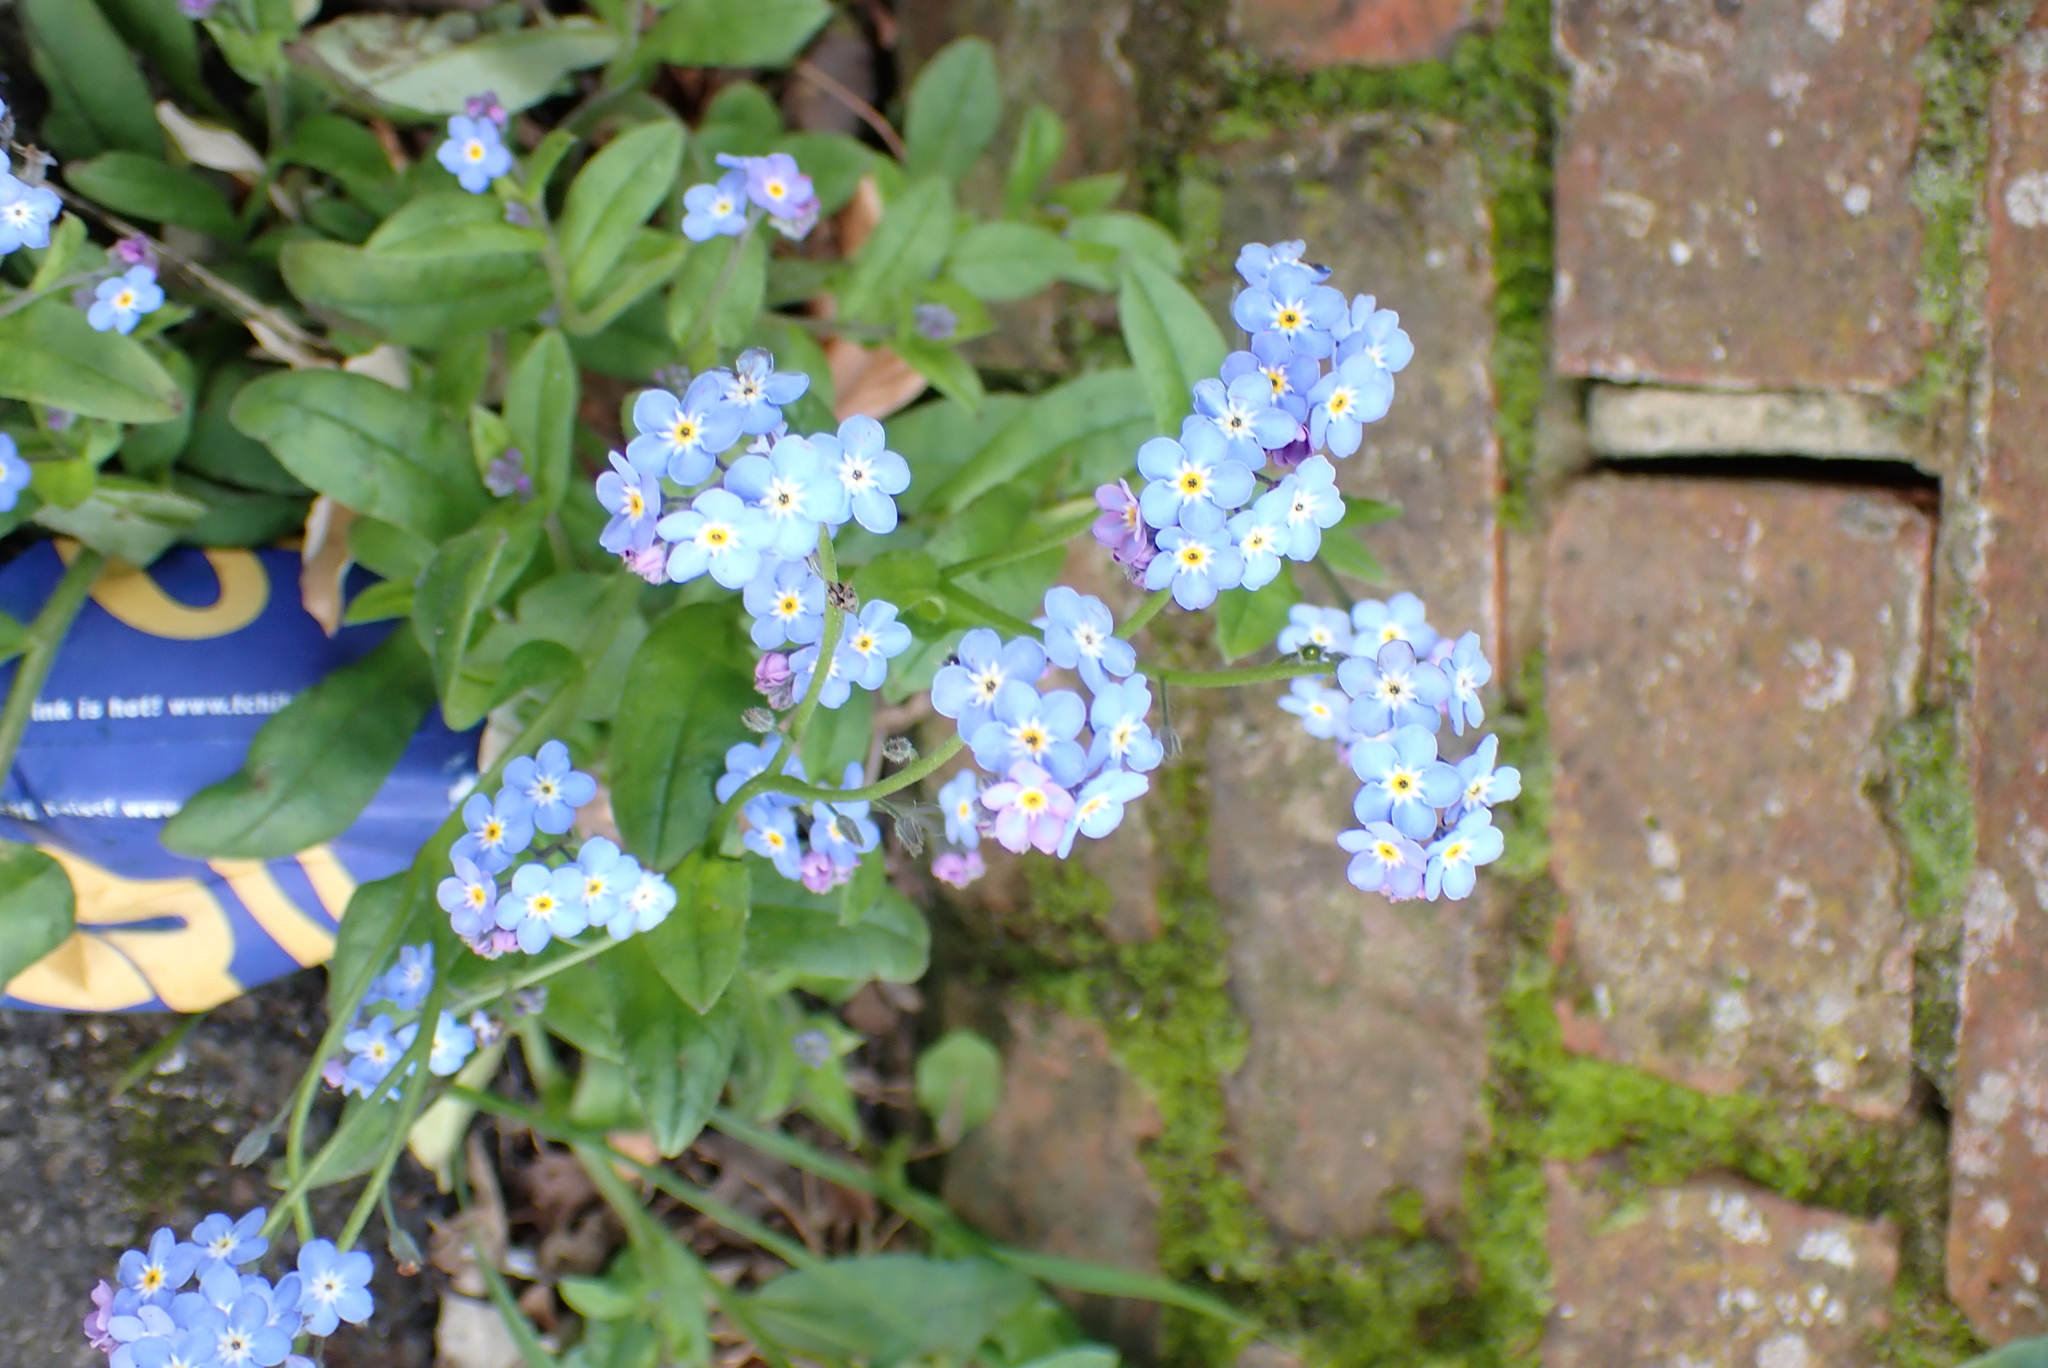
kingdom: Plantae
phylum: Tracheophyta
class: Magnoliopsida
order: Boraginales
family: Boraginaceae
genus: Myosotis
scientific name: Myosotis sylvatica
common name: Wood forget-me-not
